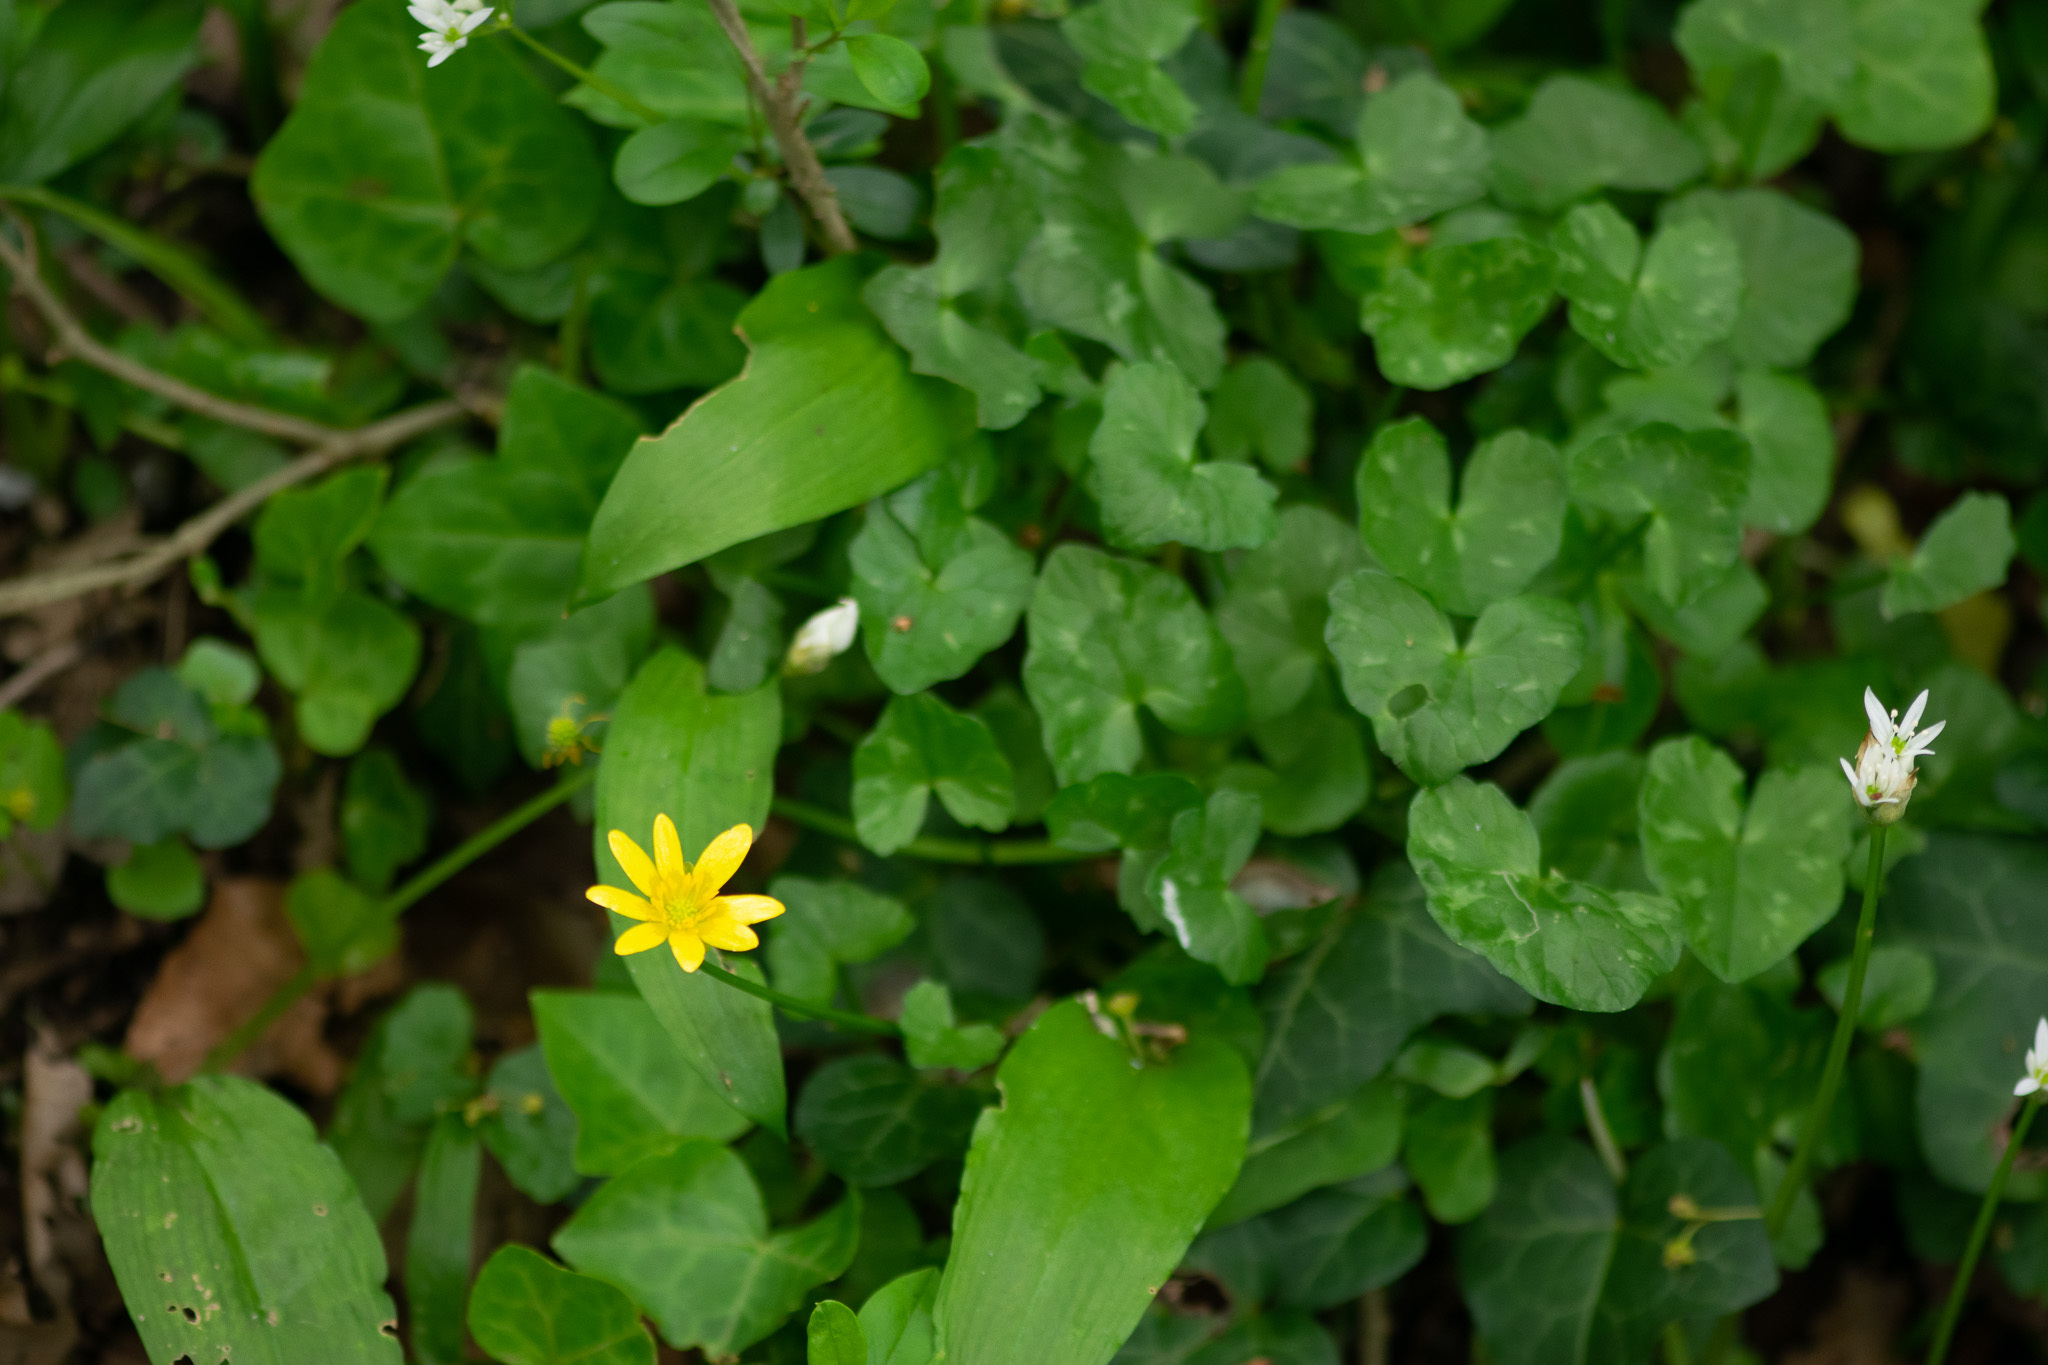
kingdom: Plantae
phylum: Tracheophyta
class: Magnoliopsida
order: Ranunculales
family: Ranunculaceae
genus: Ficaria
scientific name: Ficaria verna
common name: Lesser celandine
